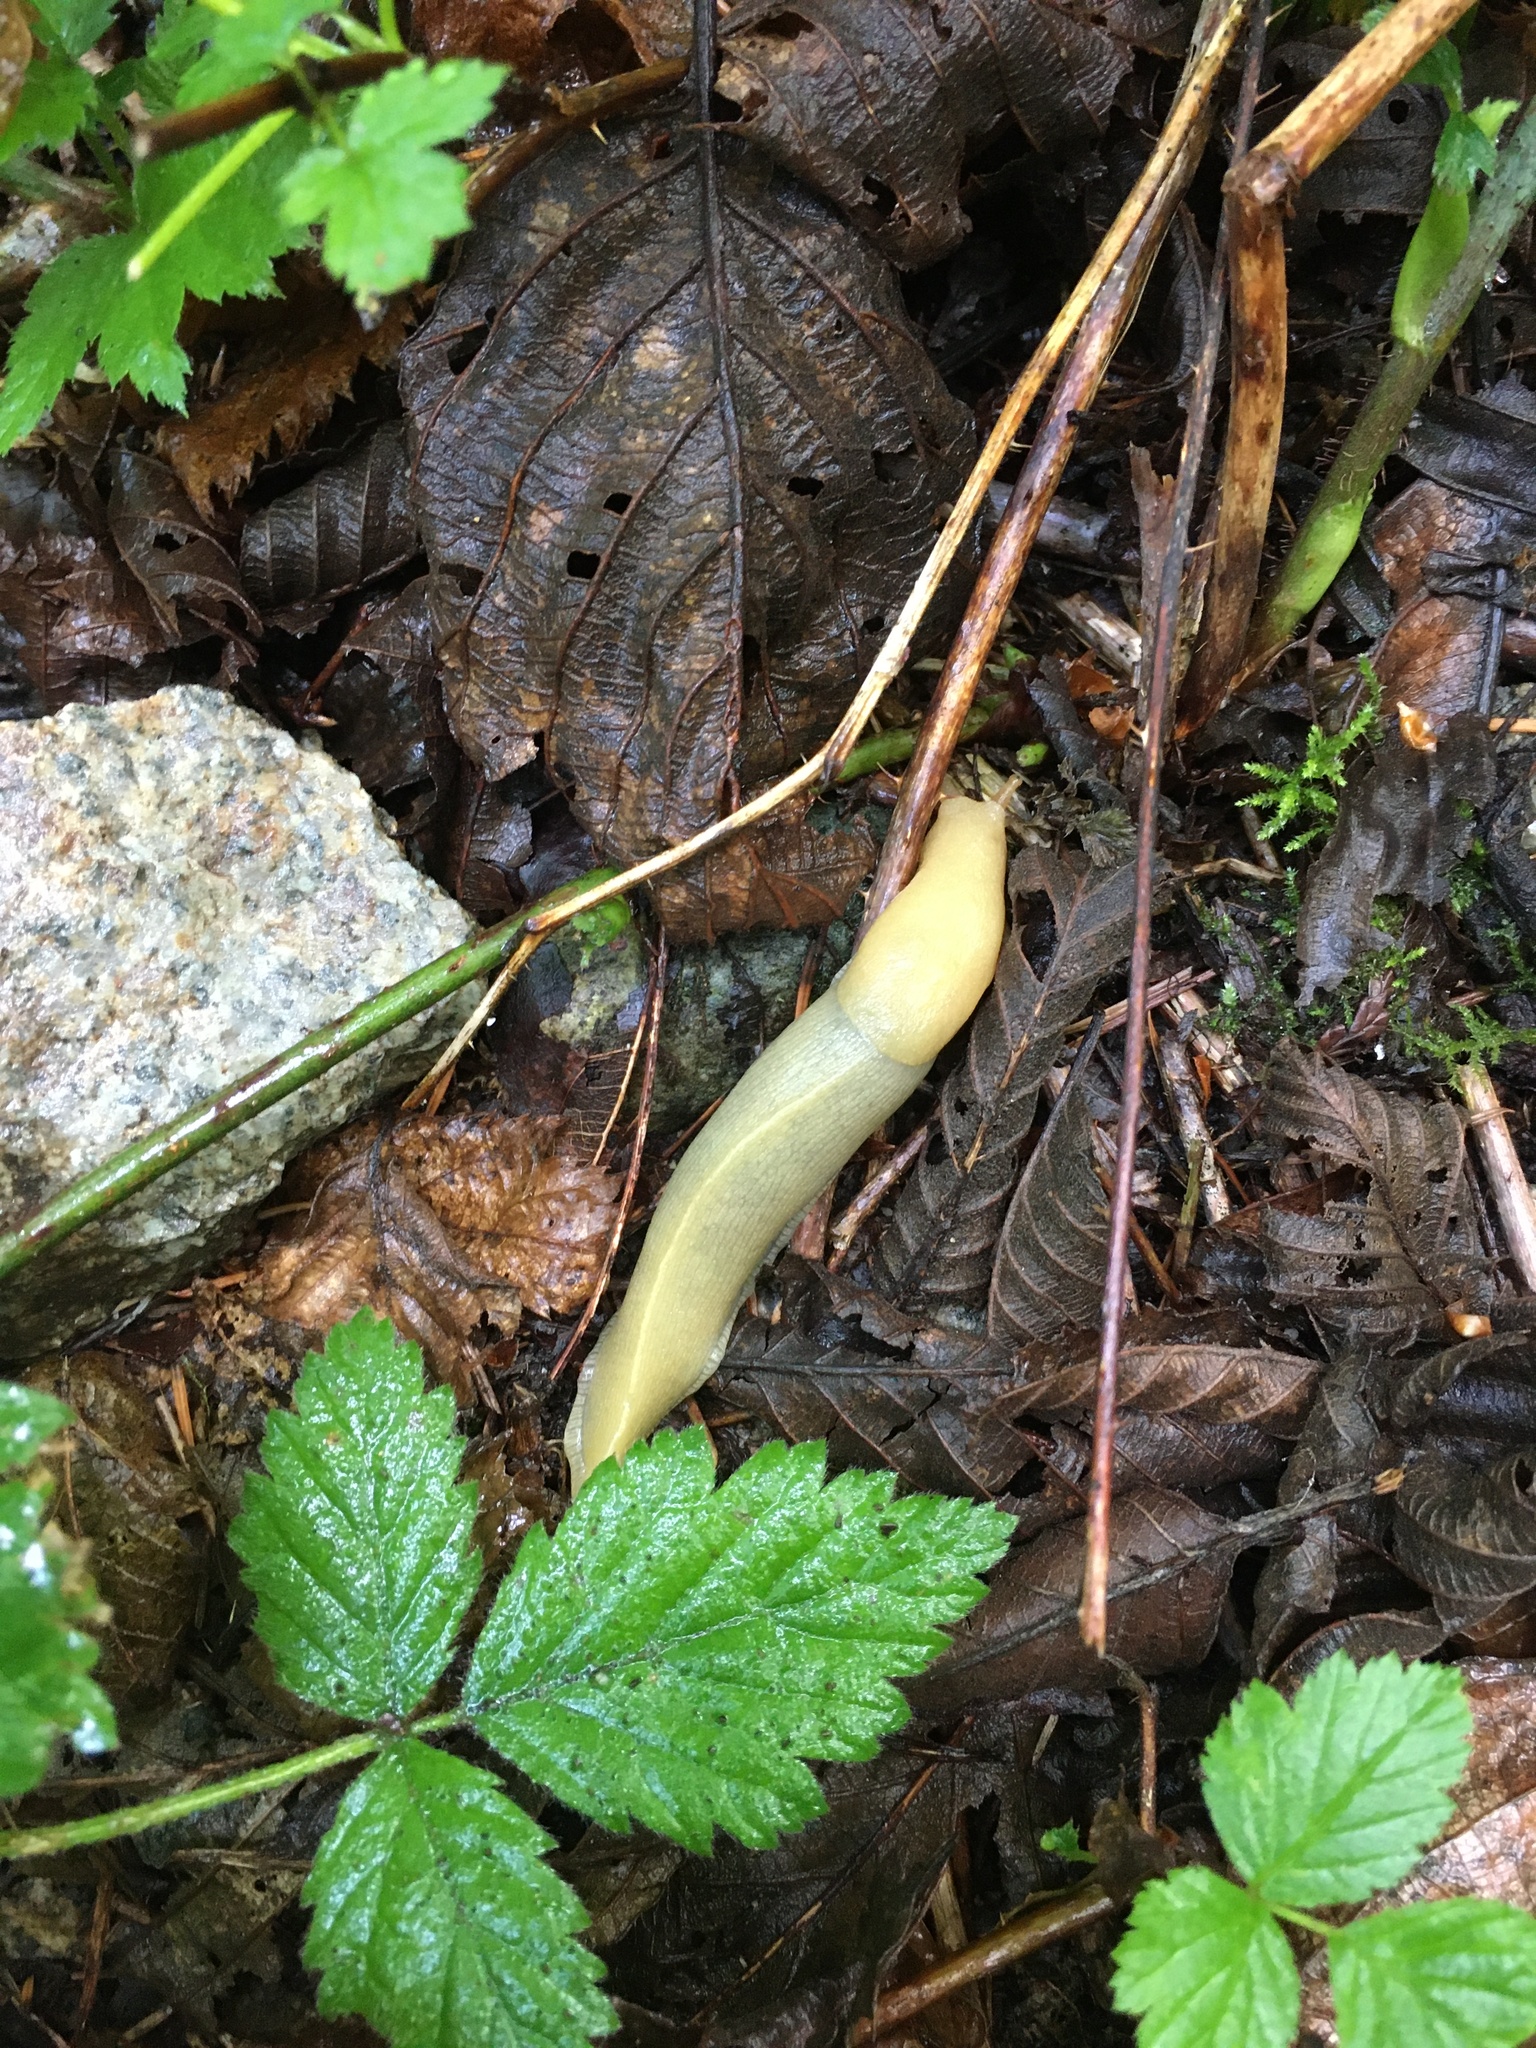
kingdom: Animalia
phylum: Mollusca
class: Gastropoda
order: Stylommatophora
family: Ariolimacidae
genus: Ariolimax
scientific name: Ariolimax columbianus
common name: Pacific banana slug
